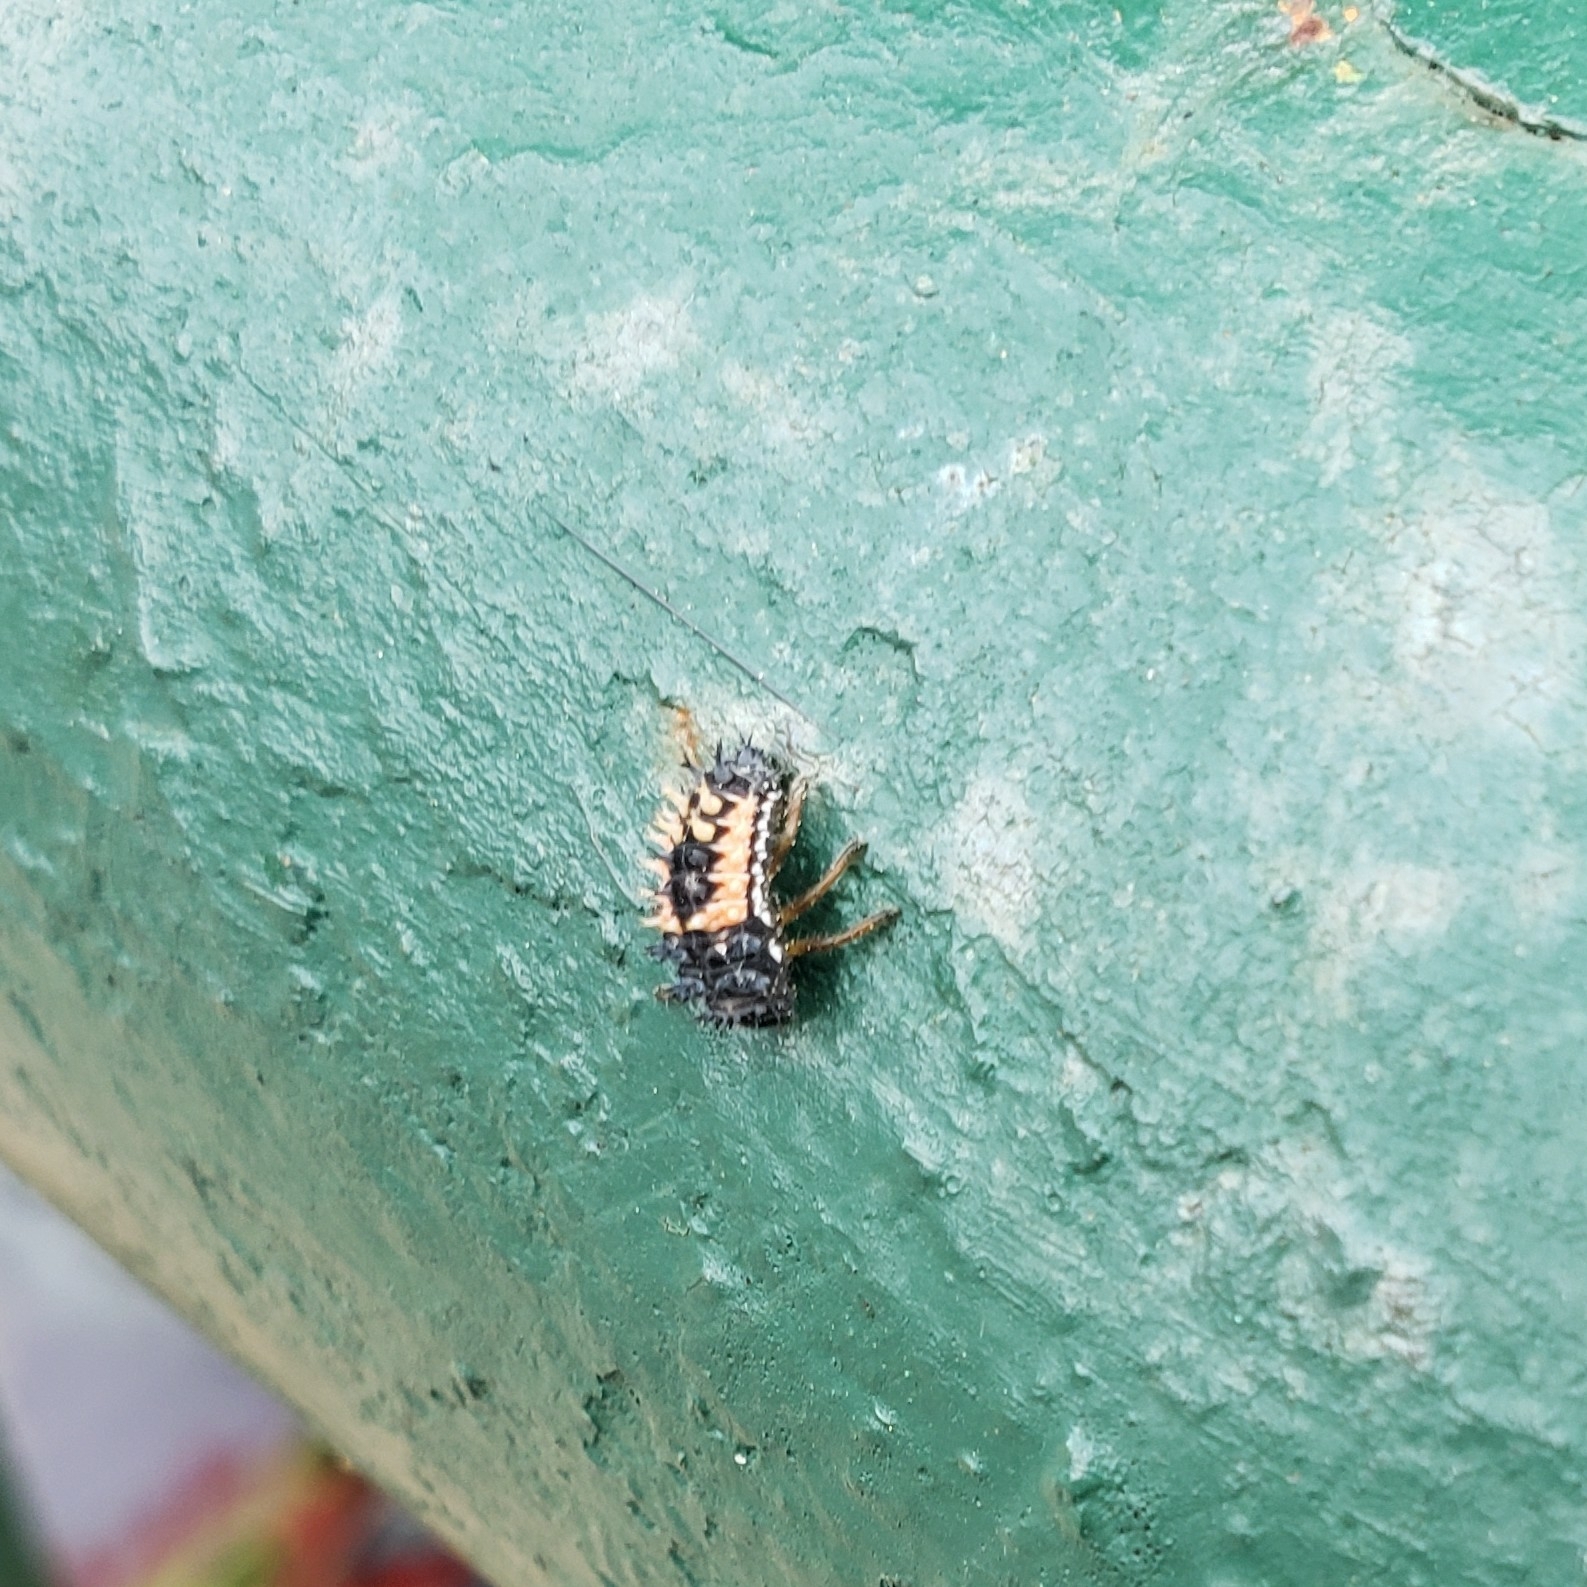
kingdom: Animalia
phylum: Arthropoda
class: Insecta
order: Coleoptera
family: Coccinellidae
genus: Harmonia
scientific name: Harmonia axyridis
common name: Harlequin ladybird
